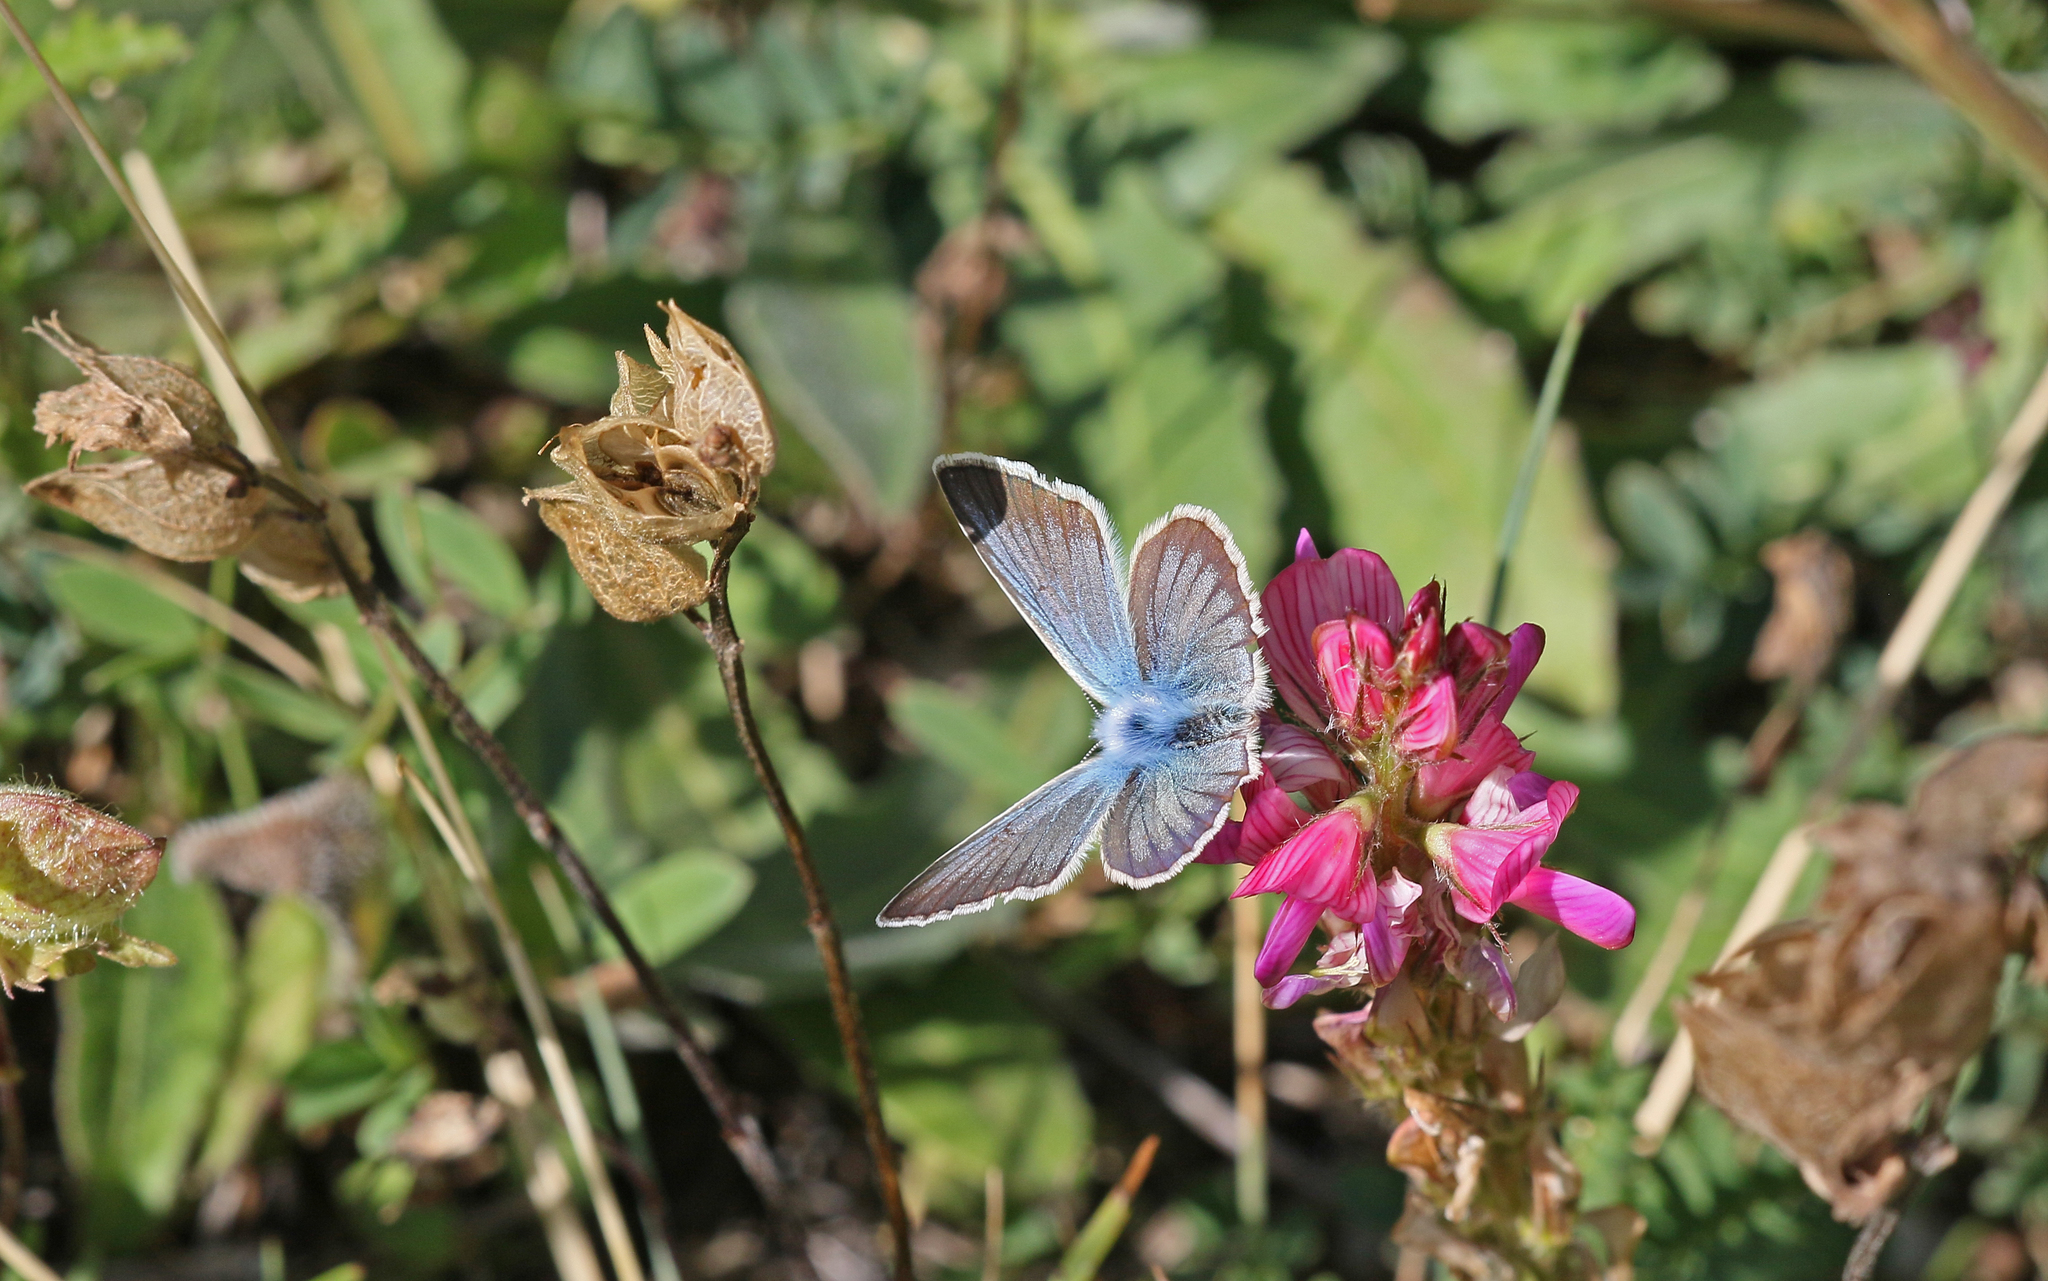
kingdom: Animalia
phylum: Arthropoda
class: Insecta
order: Lepidoptera
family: Lycaenidae
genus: Agrodiaetus
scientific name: Agrodiaetus damon
